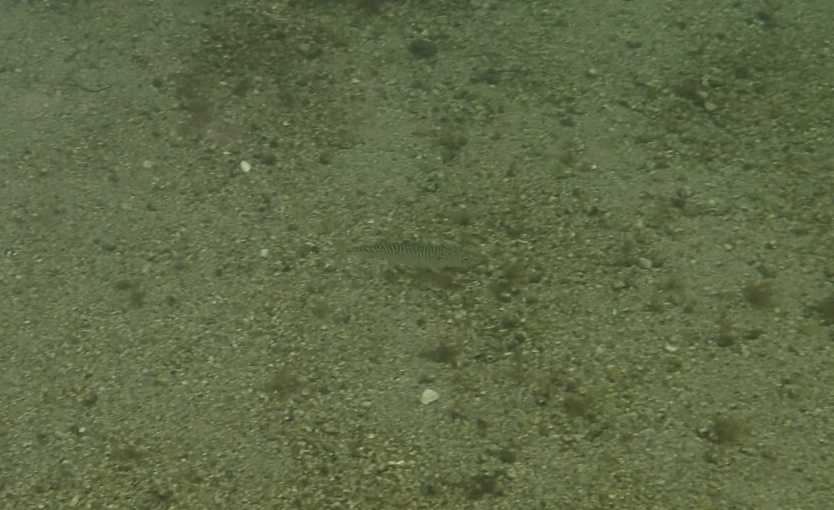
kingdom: Animalia
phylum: Chordata
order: Perciformes
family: Scombridae
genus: Scomber
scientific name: Scomber scombrus
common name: Mackerel
